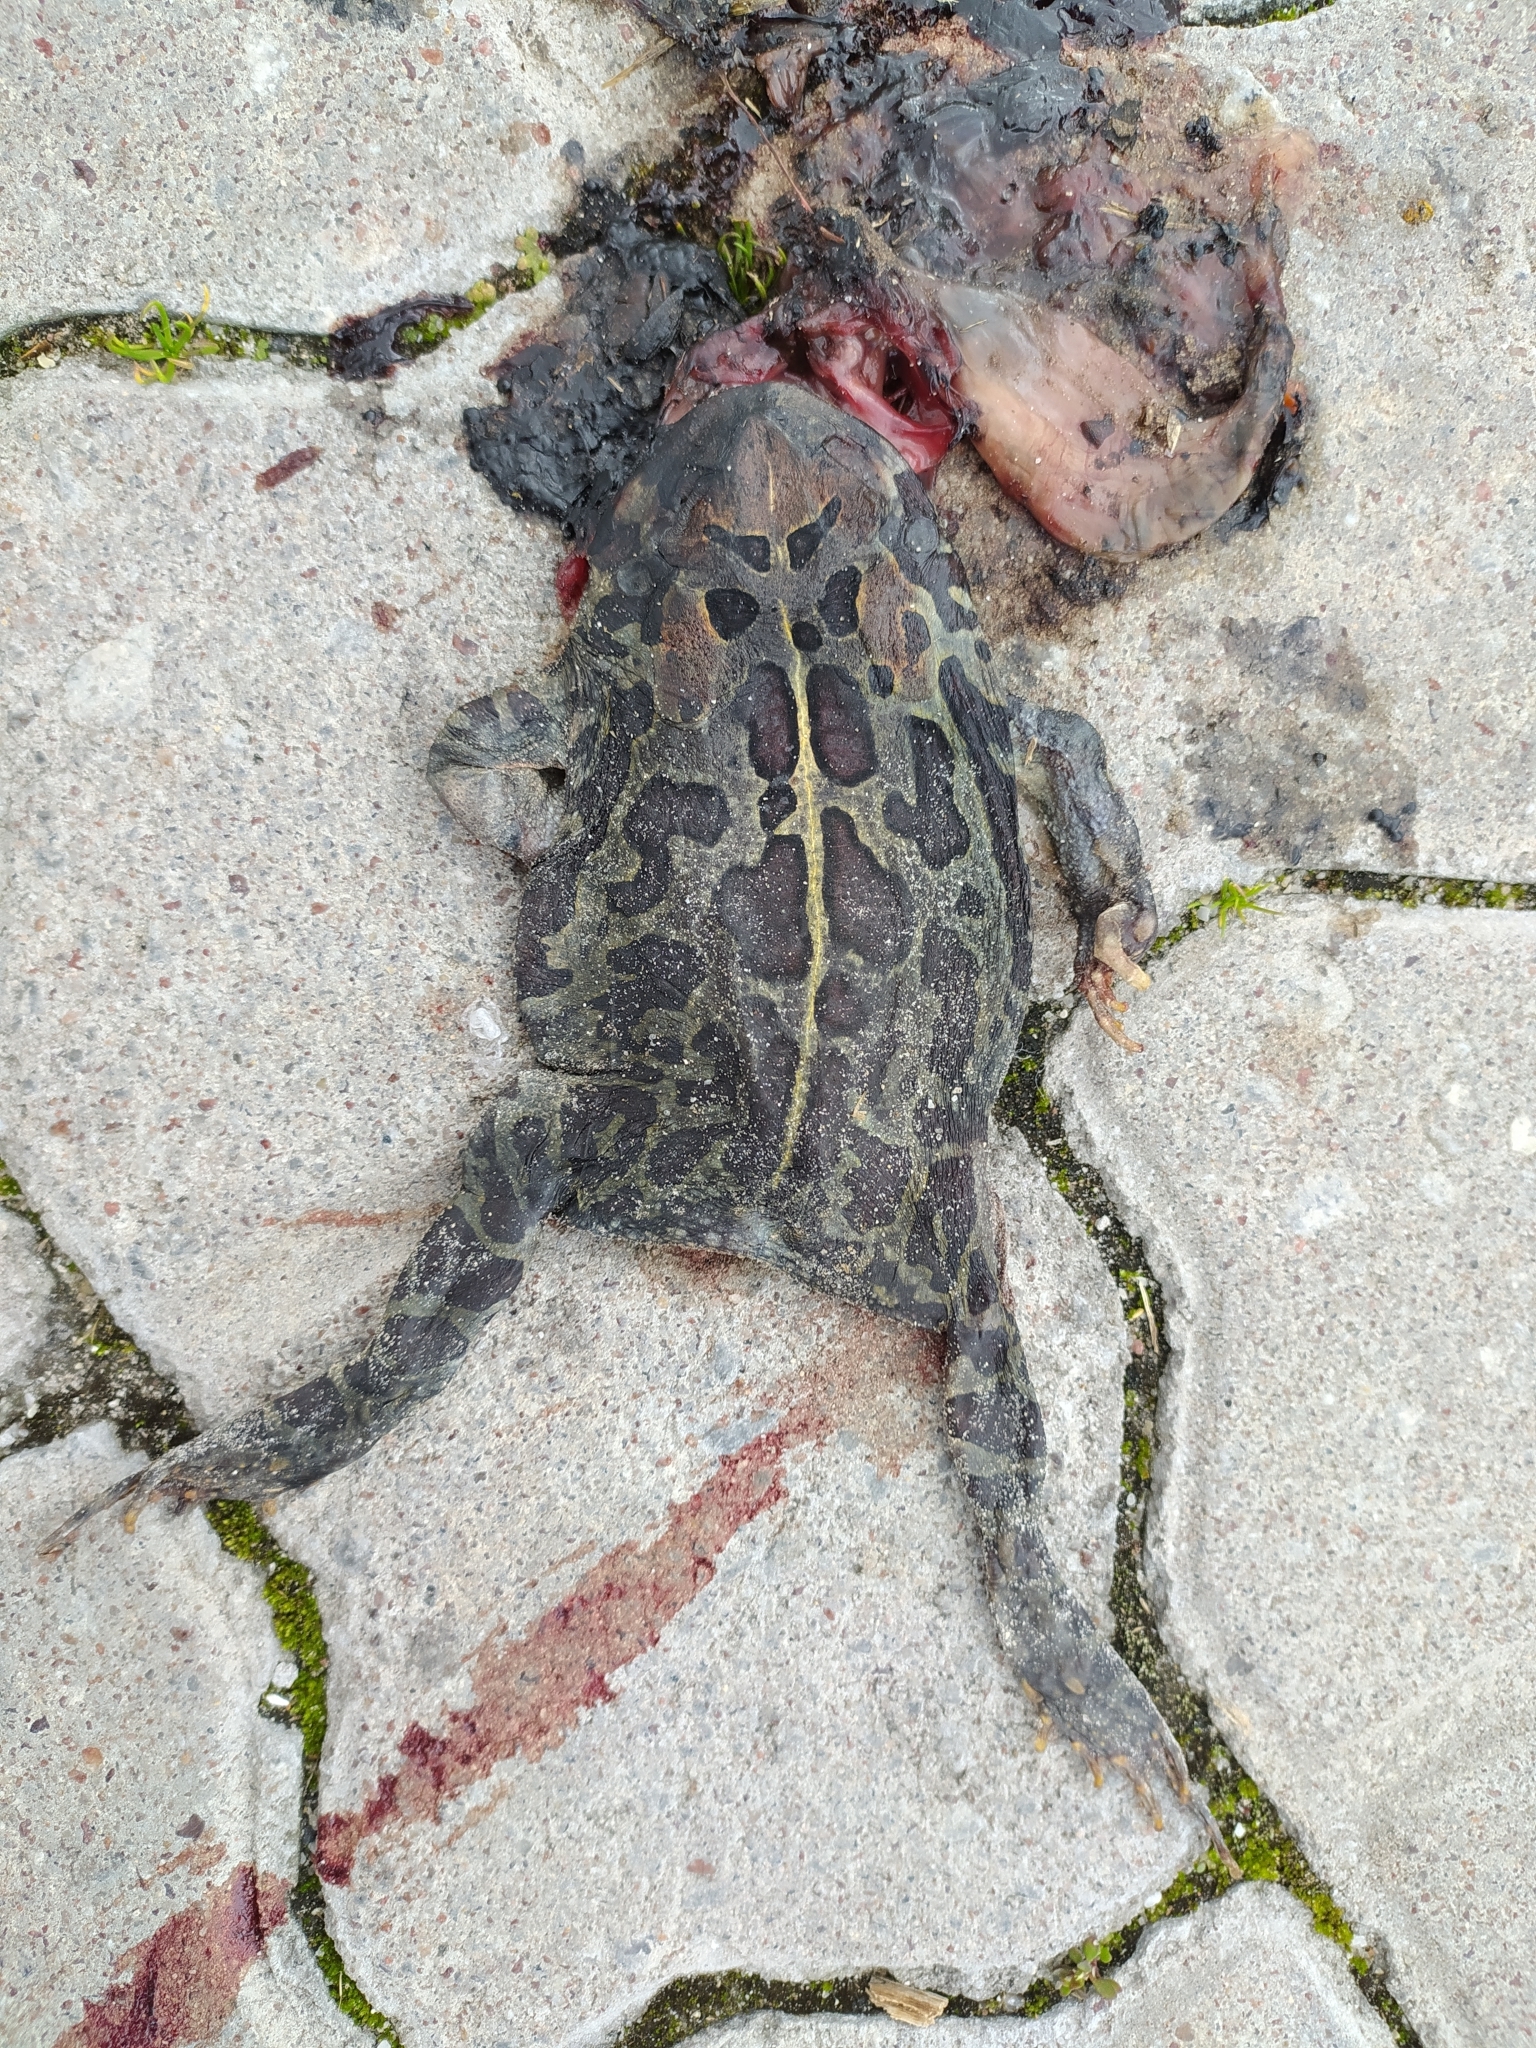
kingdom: Animalia
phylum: Chordata
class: Amphibia
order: Anura
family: Bufonidae
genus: Sclerophrys
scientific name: Sclerophrys pantherina
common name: Panther toad
